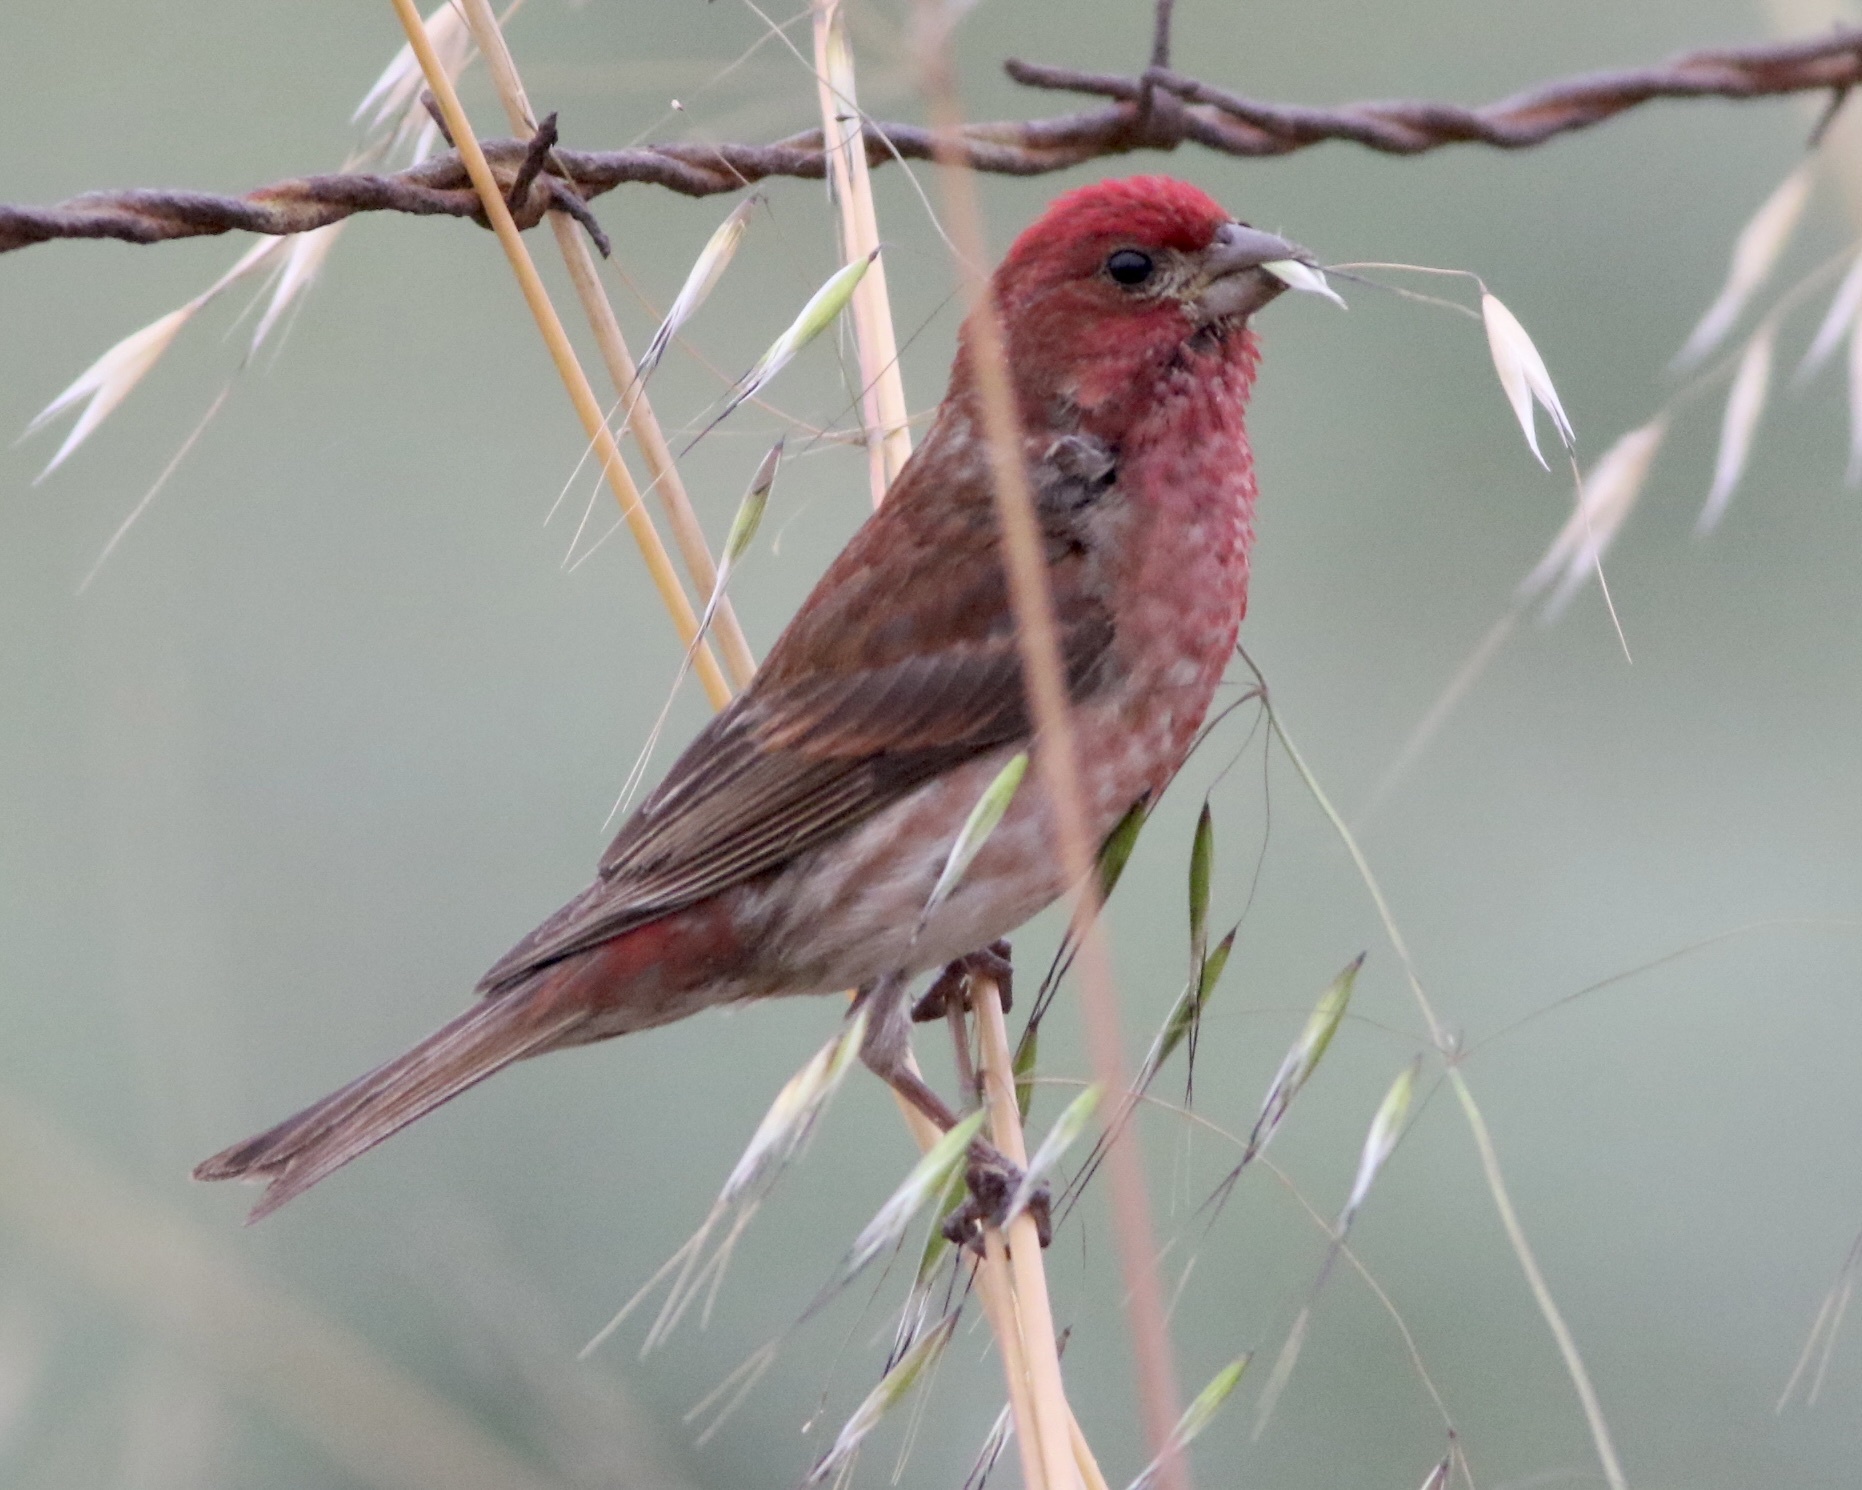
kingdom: Animalia
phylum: Chordata
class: Aves
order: Passeriformes
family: Fringillidae
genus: Haemorhous
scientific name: Haemorhous purpureus
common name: Purple finch
